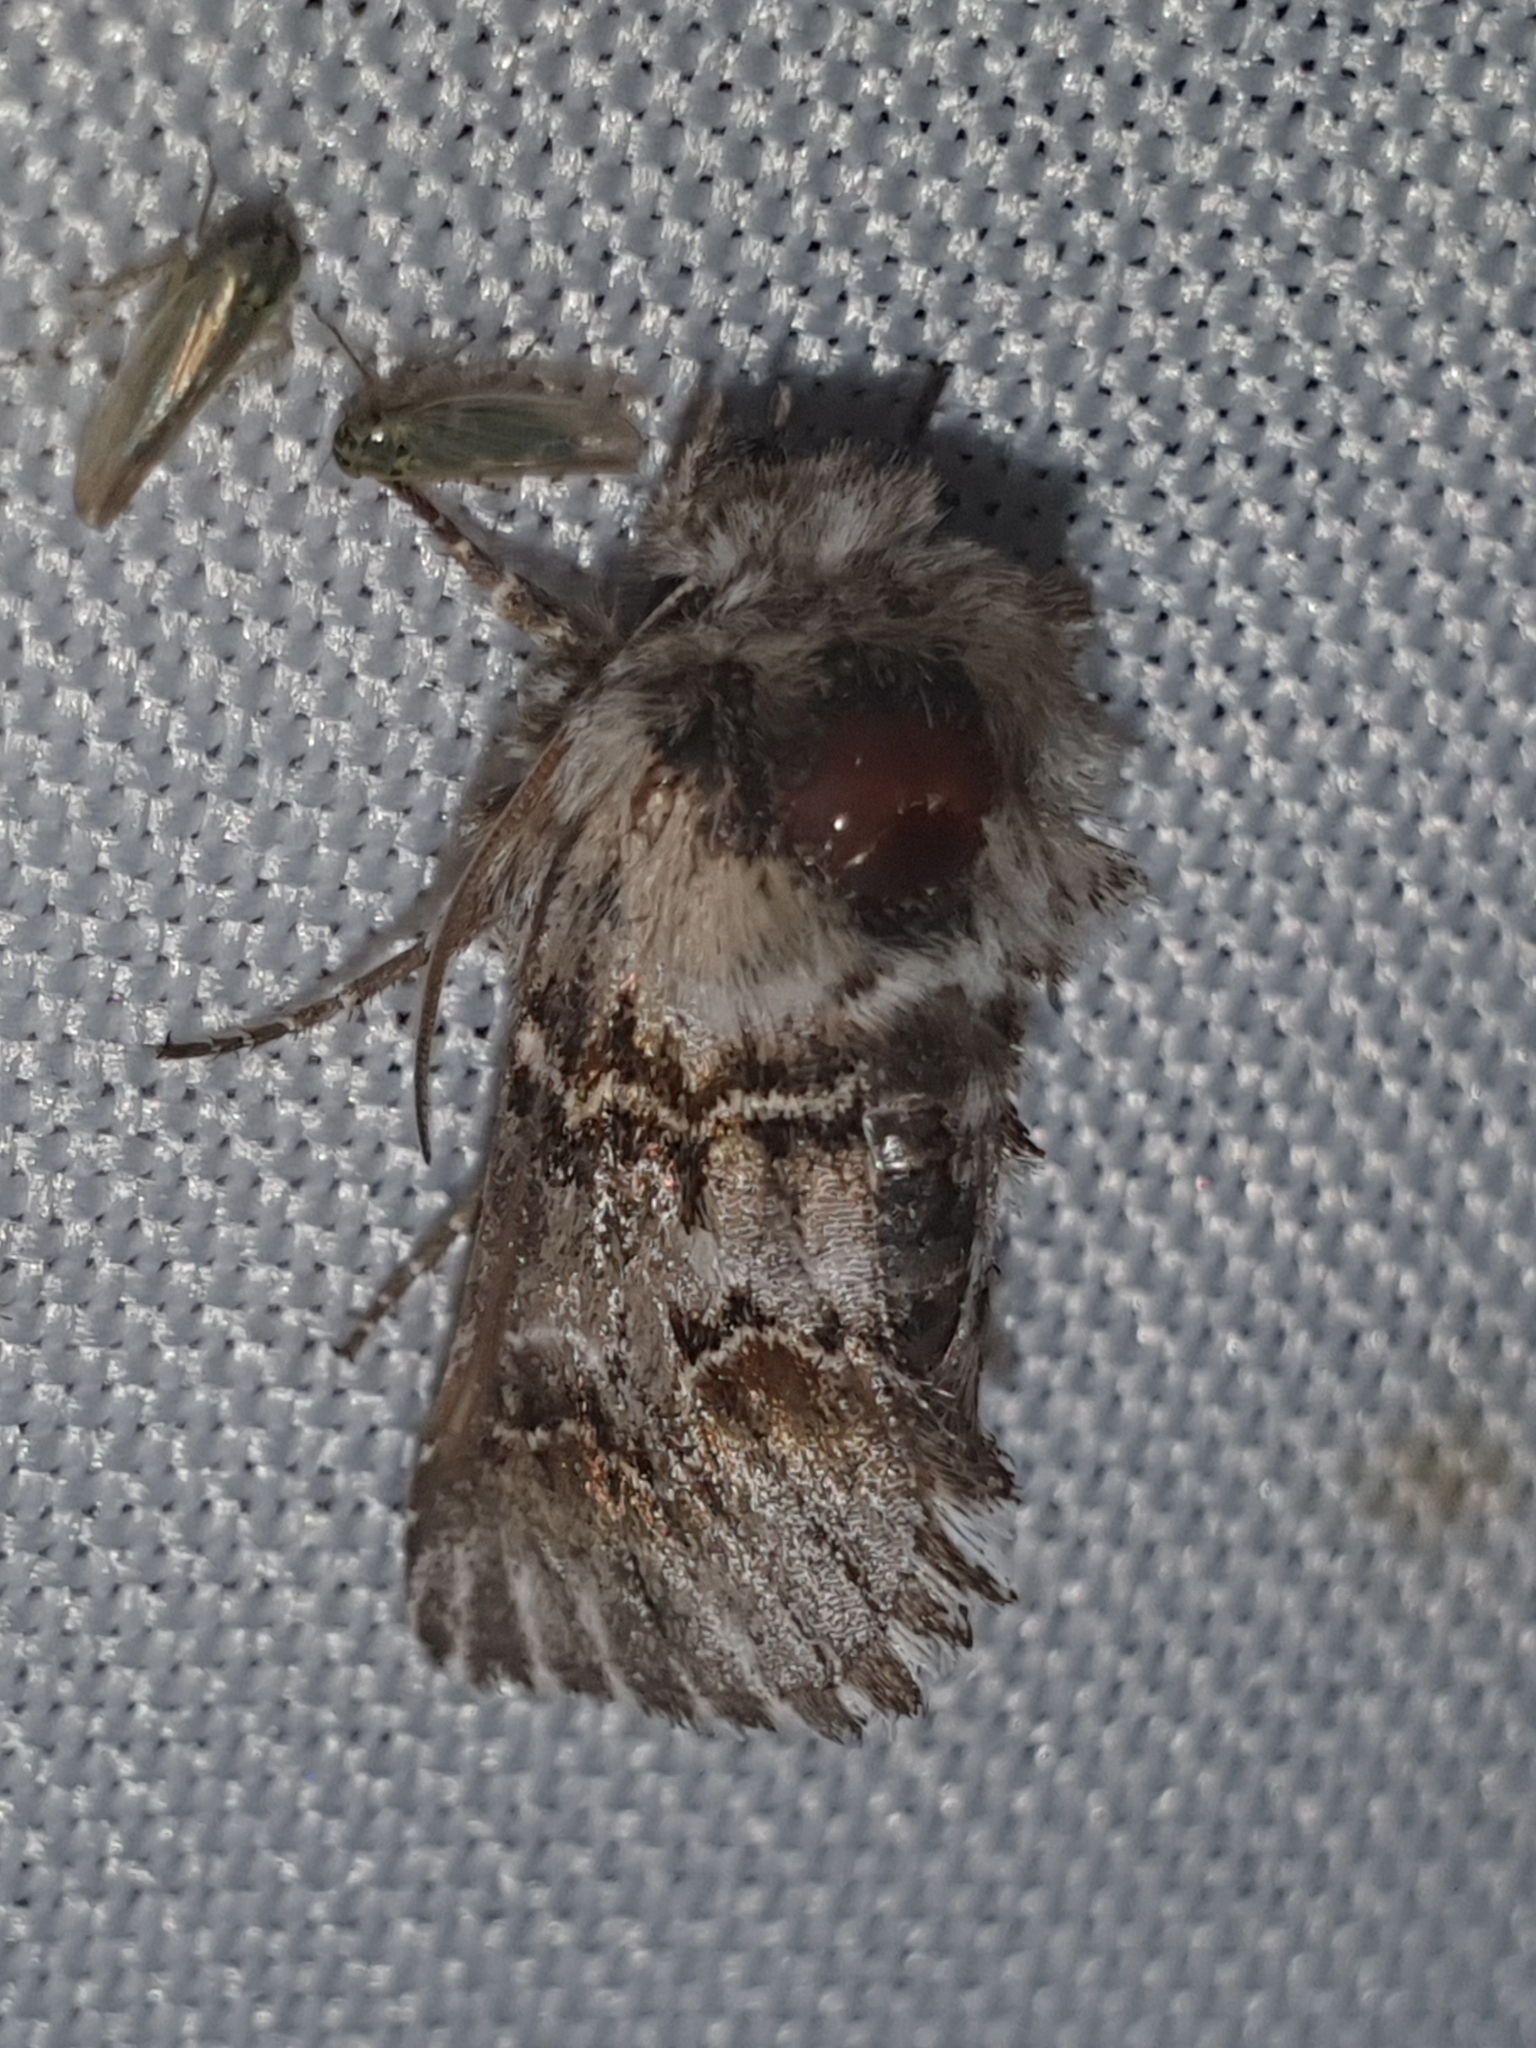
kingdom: Animalia
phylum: Arthropoda
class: Insecta
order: Lepidoptera
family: Noctuidae
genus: Cleonymia
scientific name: Cleonymia baetica
